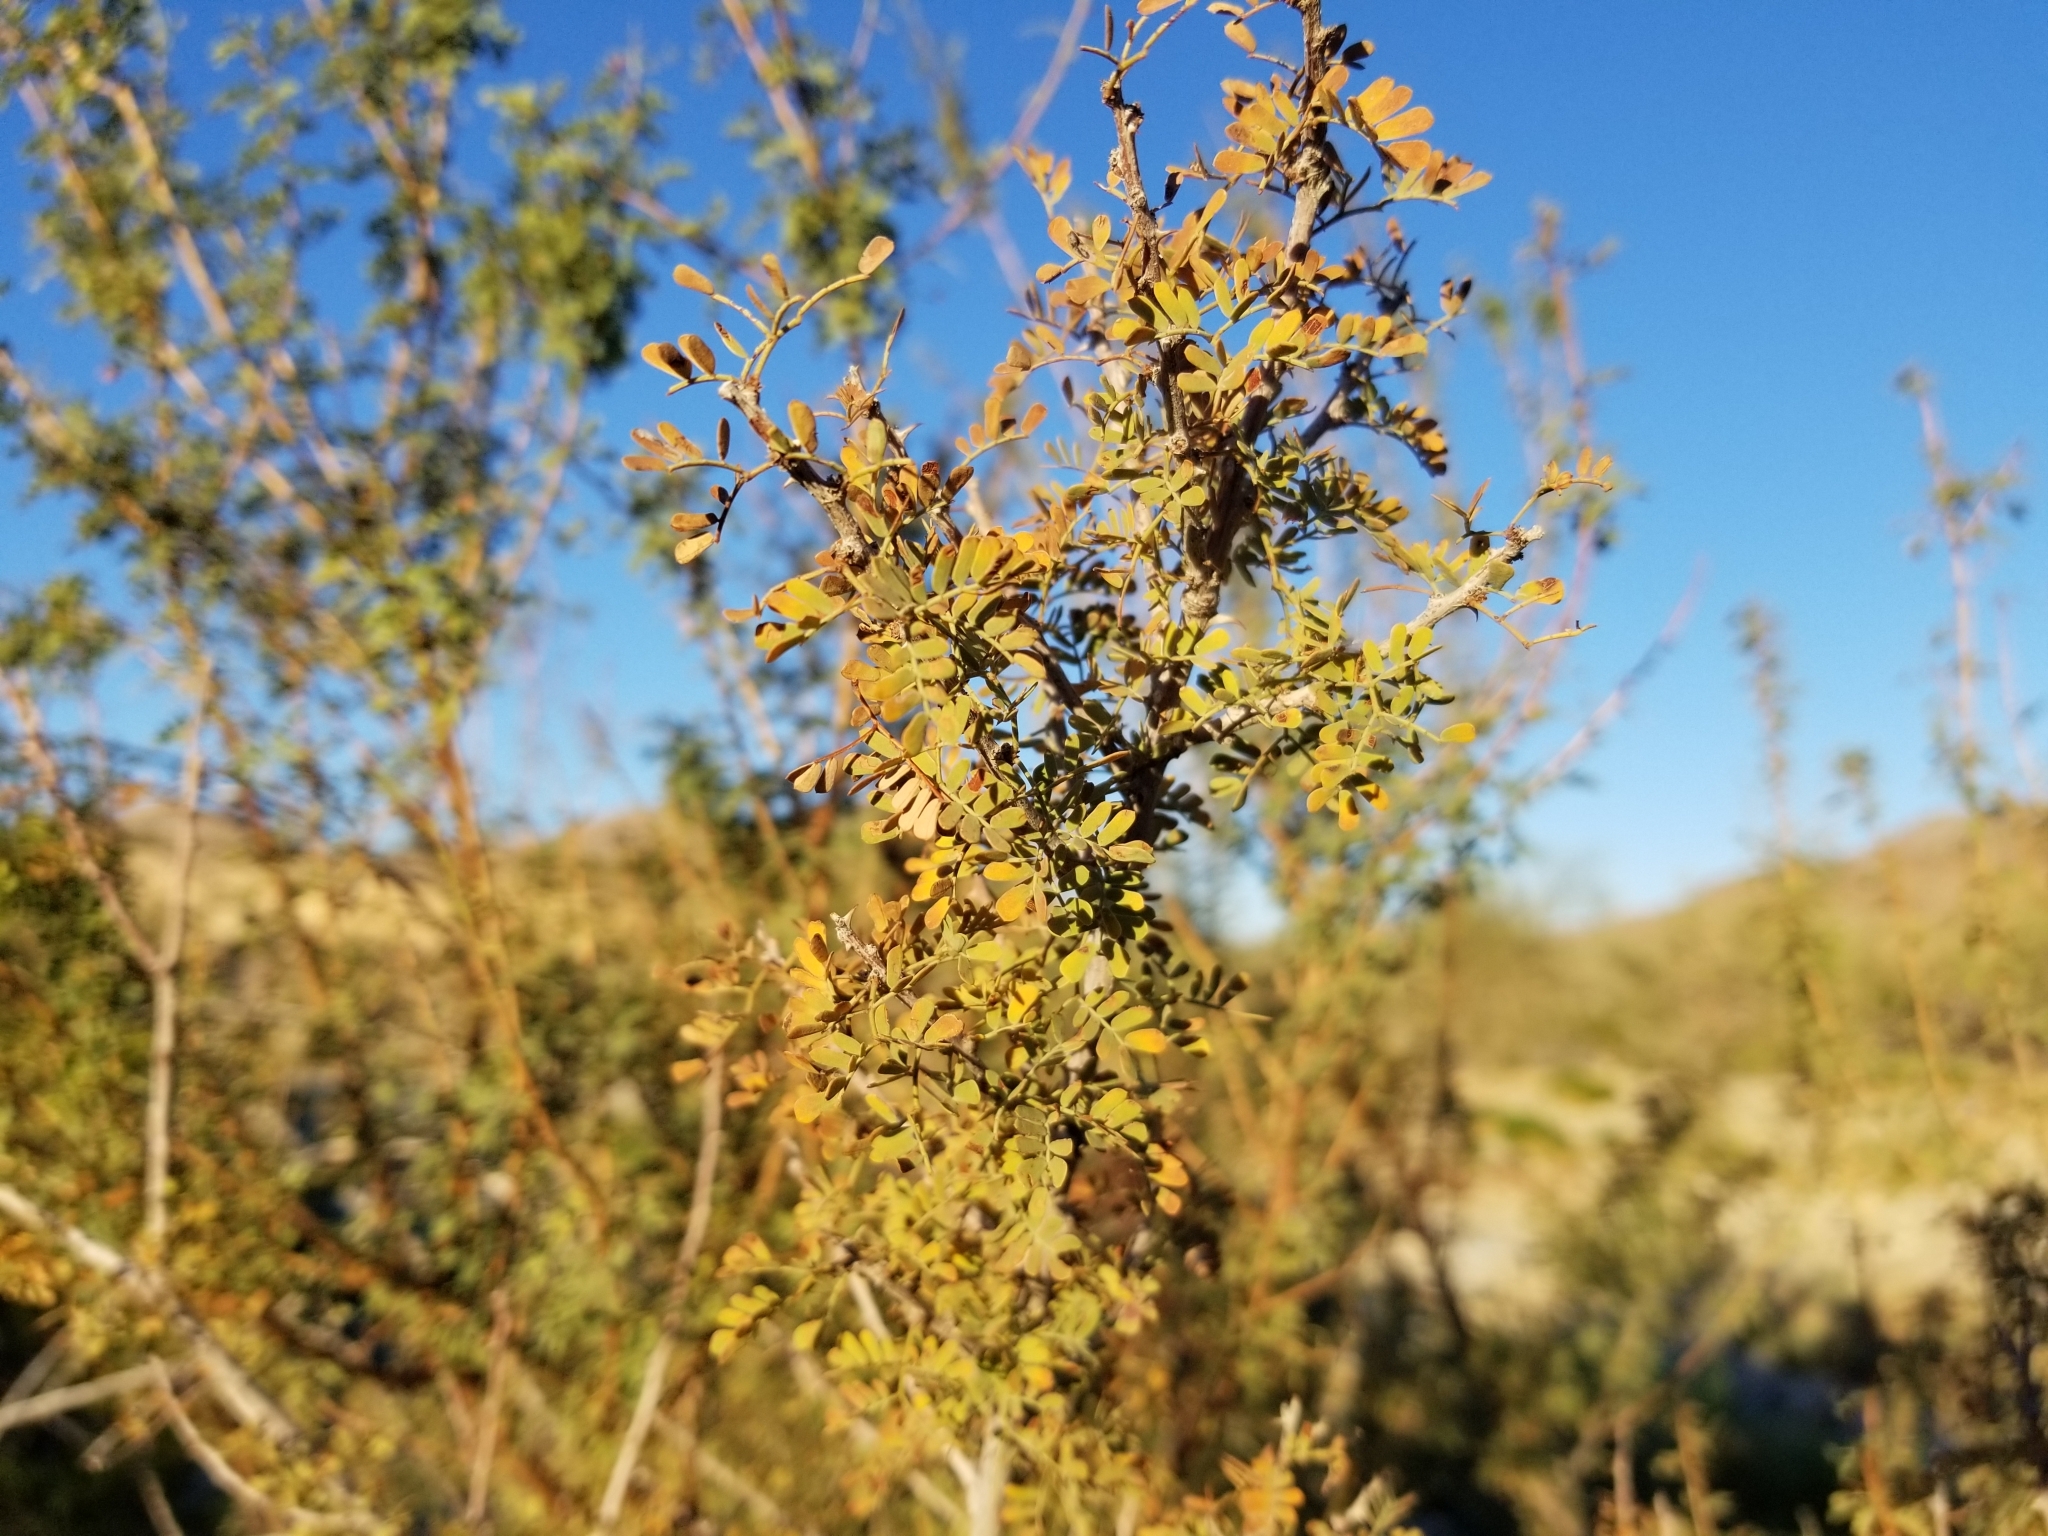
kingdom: Plantae
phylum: Tracheophyta
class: Magnoliopsida
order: Fabales
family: Fabaceae
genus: Senegalia
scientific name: Senegalia greggii
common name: Texas-mimosa
